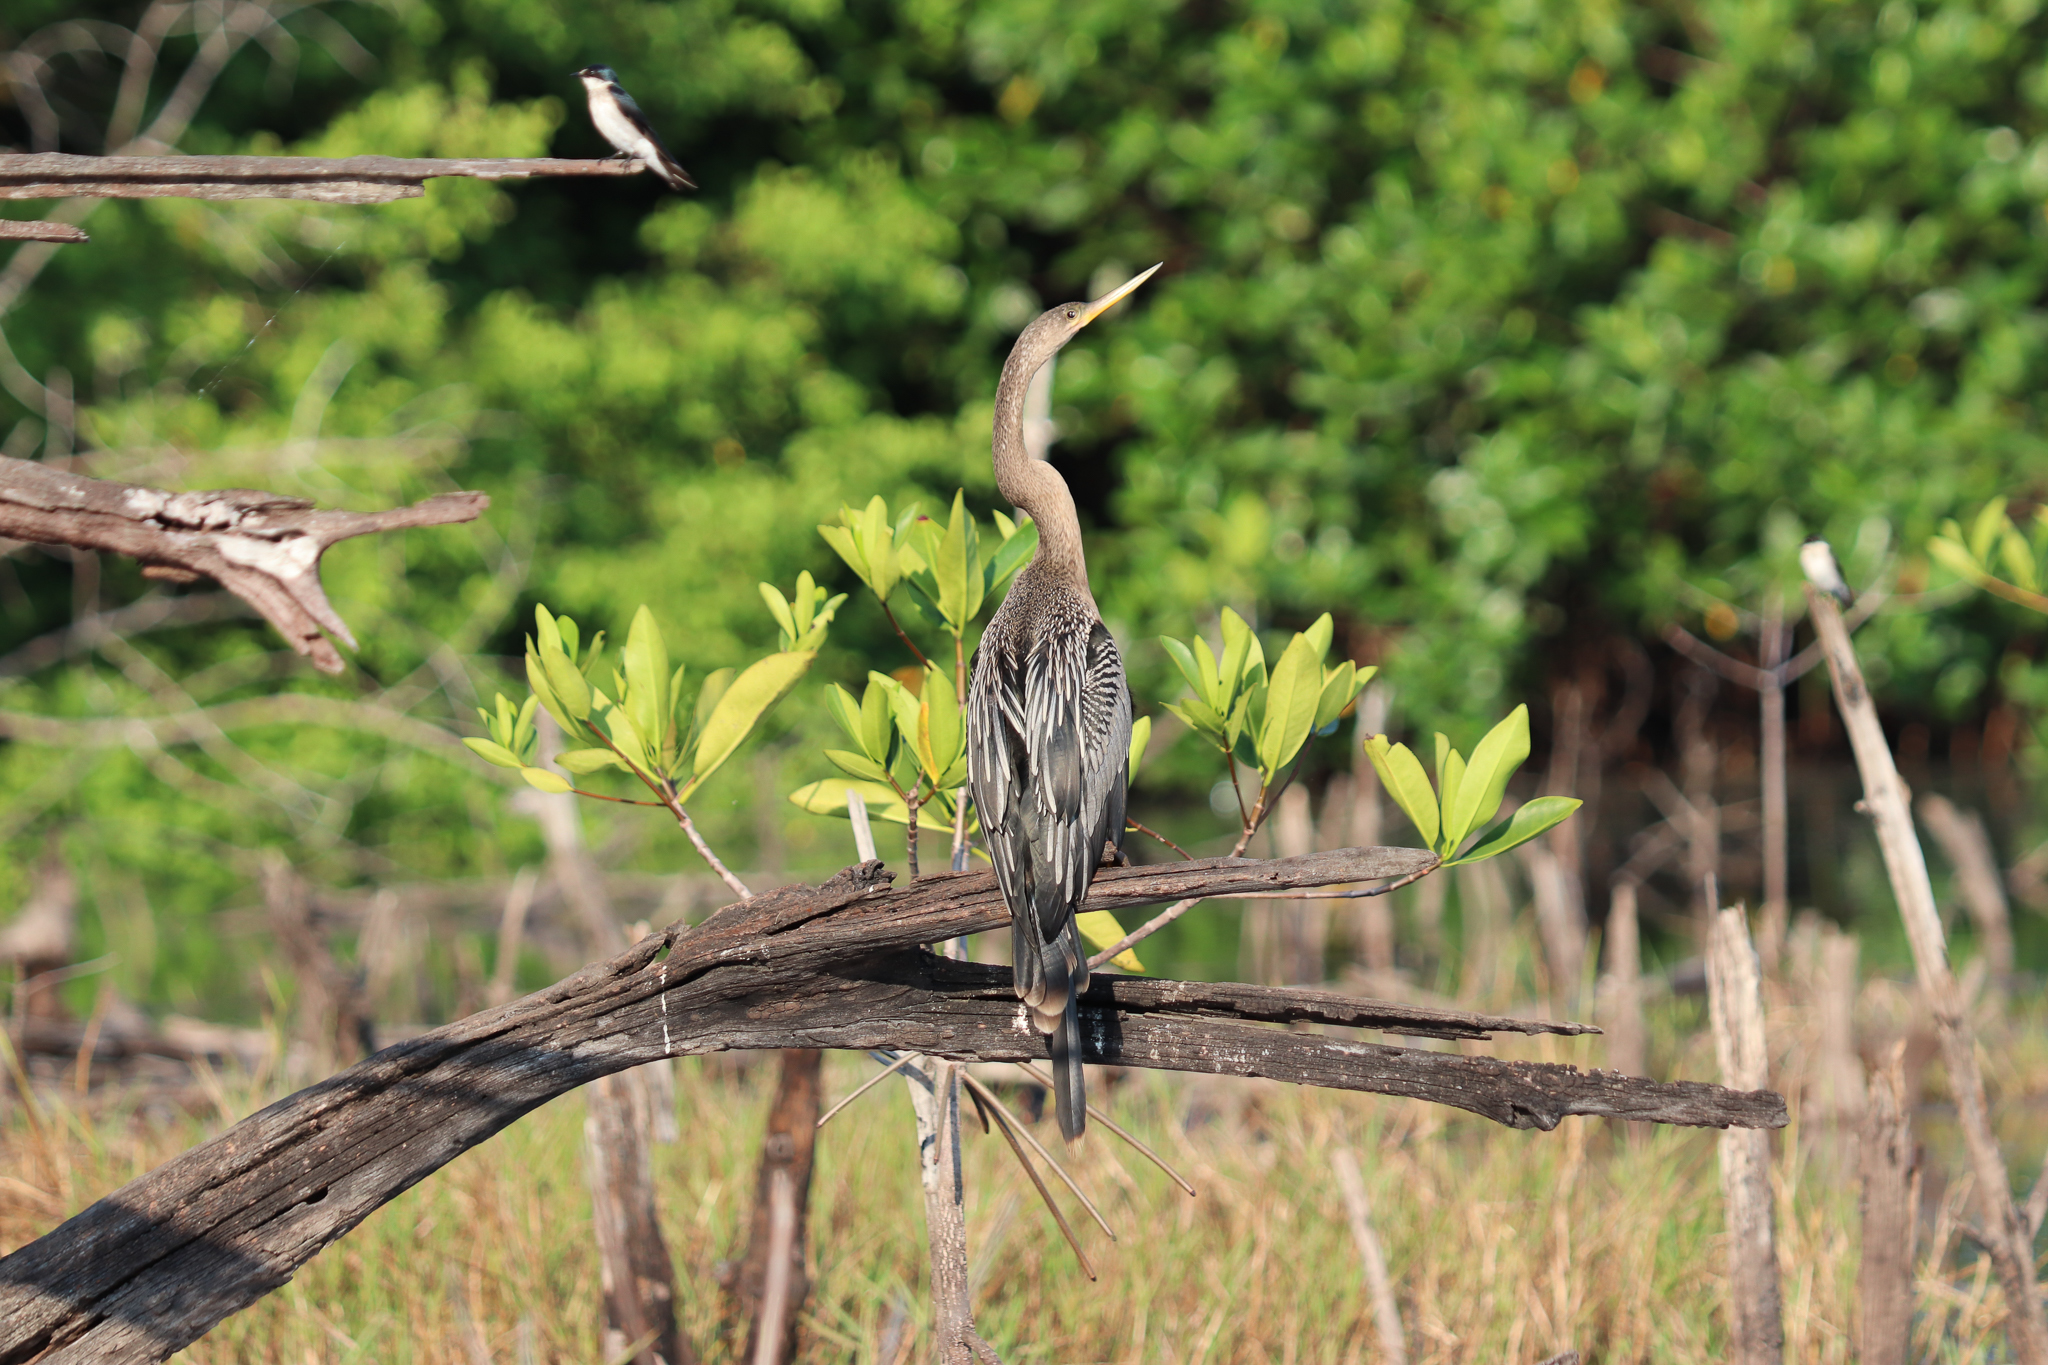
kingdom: Animalia
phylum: Chordata
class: Aves
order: Suliformes
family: Anhingidae
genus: Anhinga
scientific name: Anhinga anhinga
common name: Anhinga
